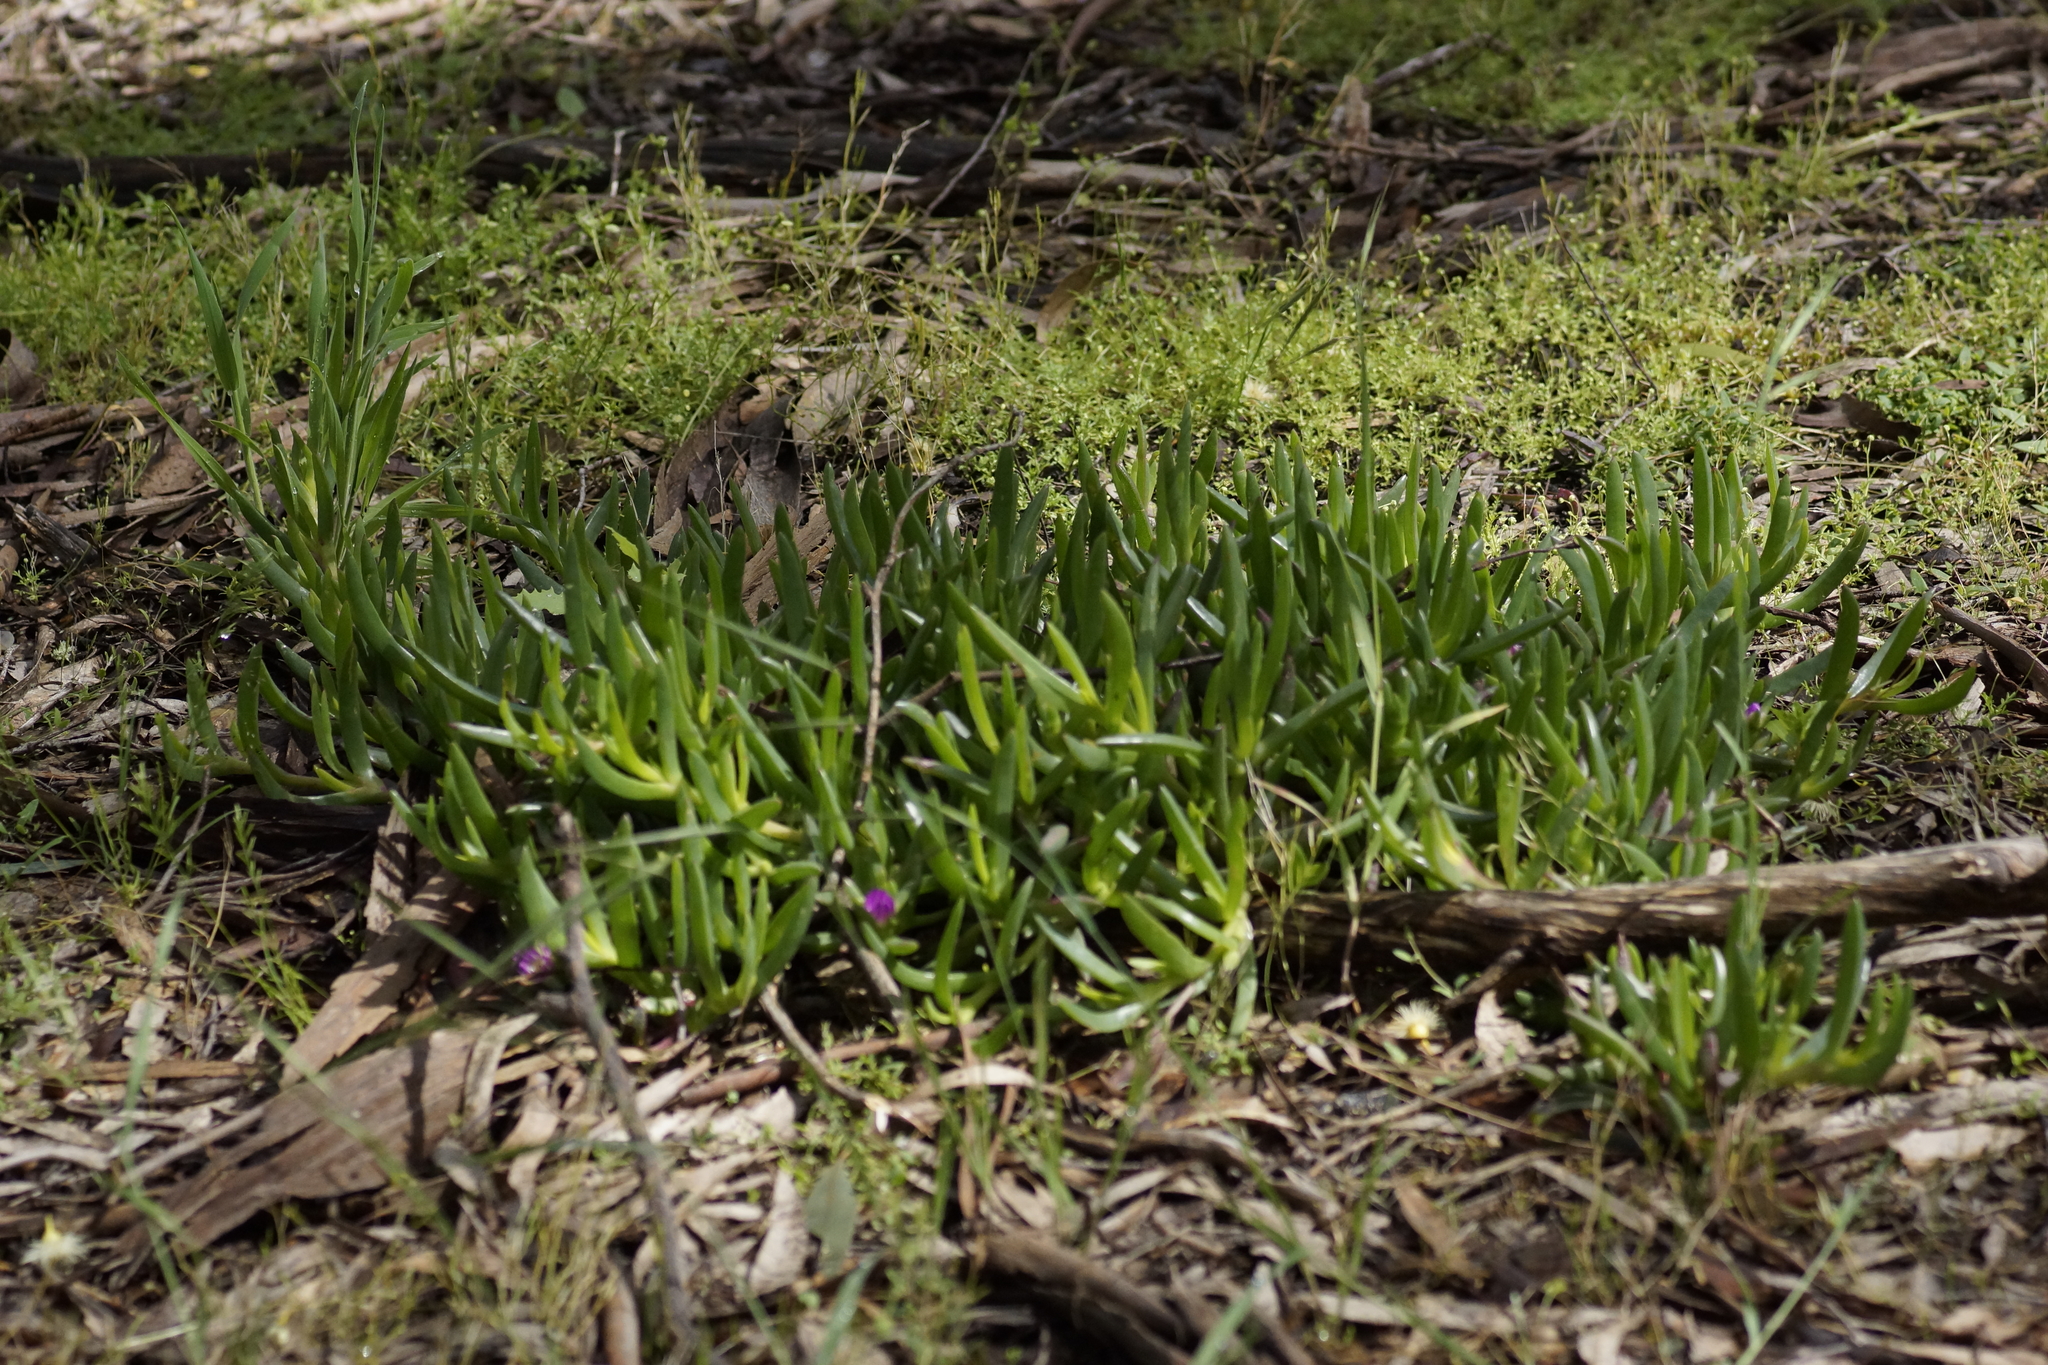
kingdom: Plantae
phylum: Tracheophyta
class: Magnoliopsida
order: Caryophyllales
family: Aizoaceae
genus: Carpobrotus
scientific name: Carpobrotus modestus
